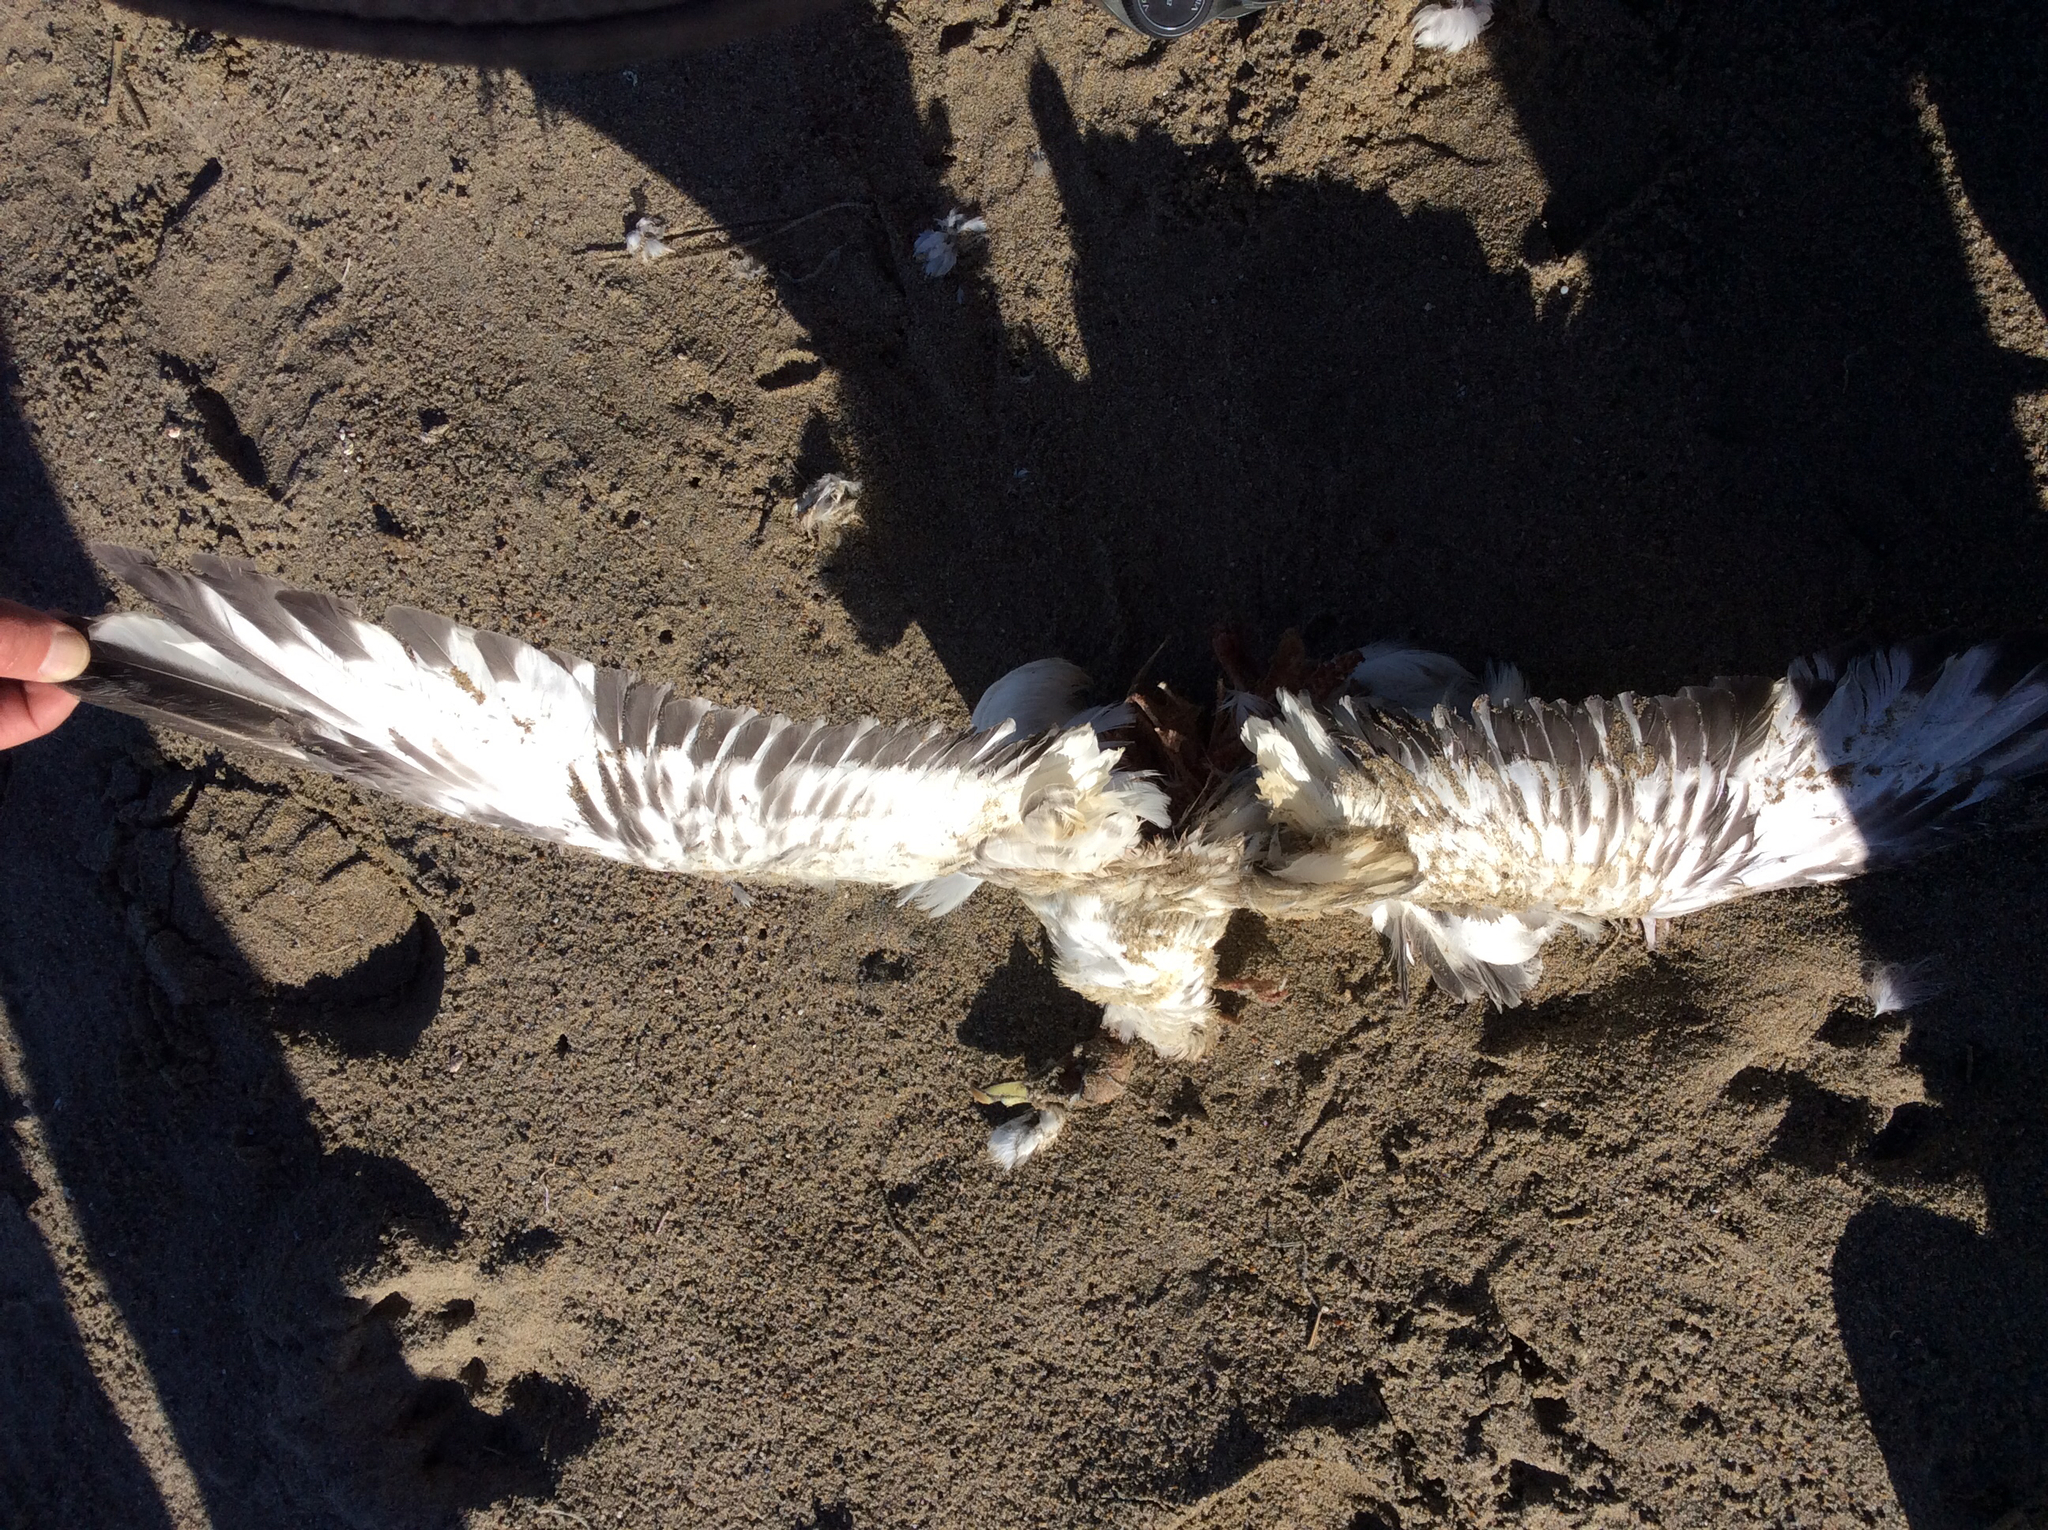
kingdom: Animalia
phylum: Chordata
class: Aves
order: Procellariiformes
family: Procellariidae
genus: Fulmarus
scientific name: Fulmarus glacialis
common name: Northern fulmar
